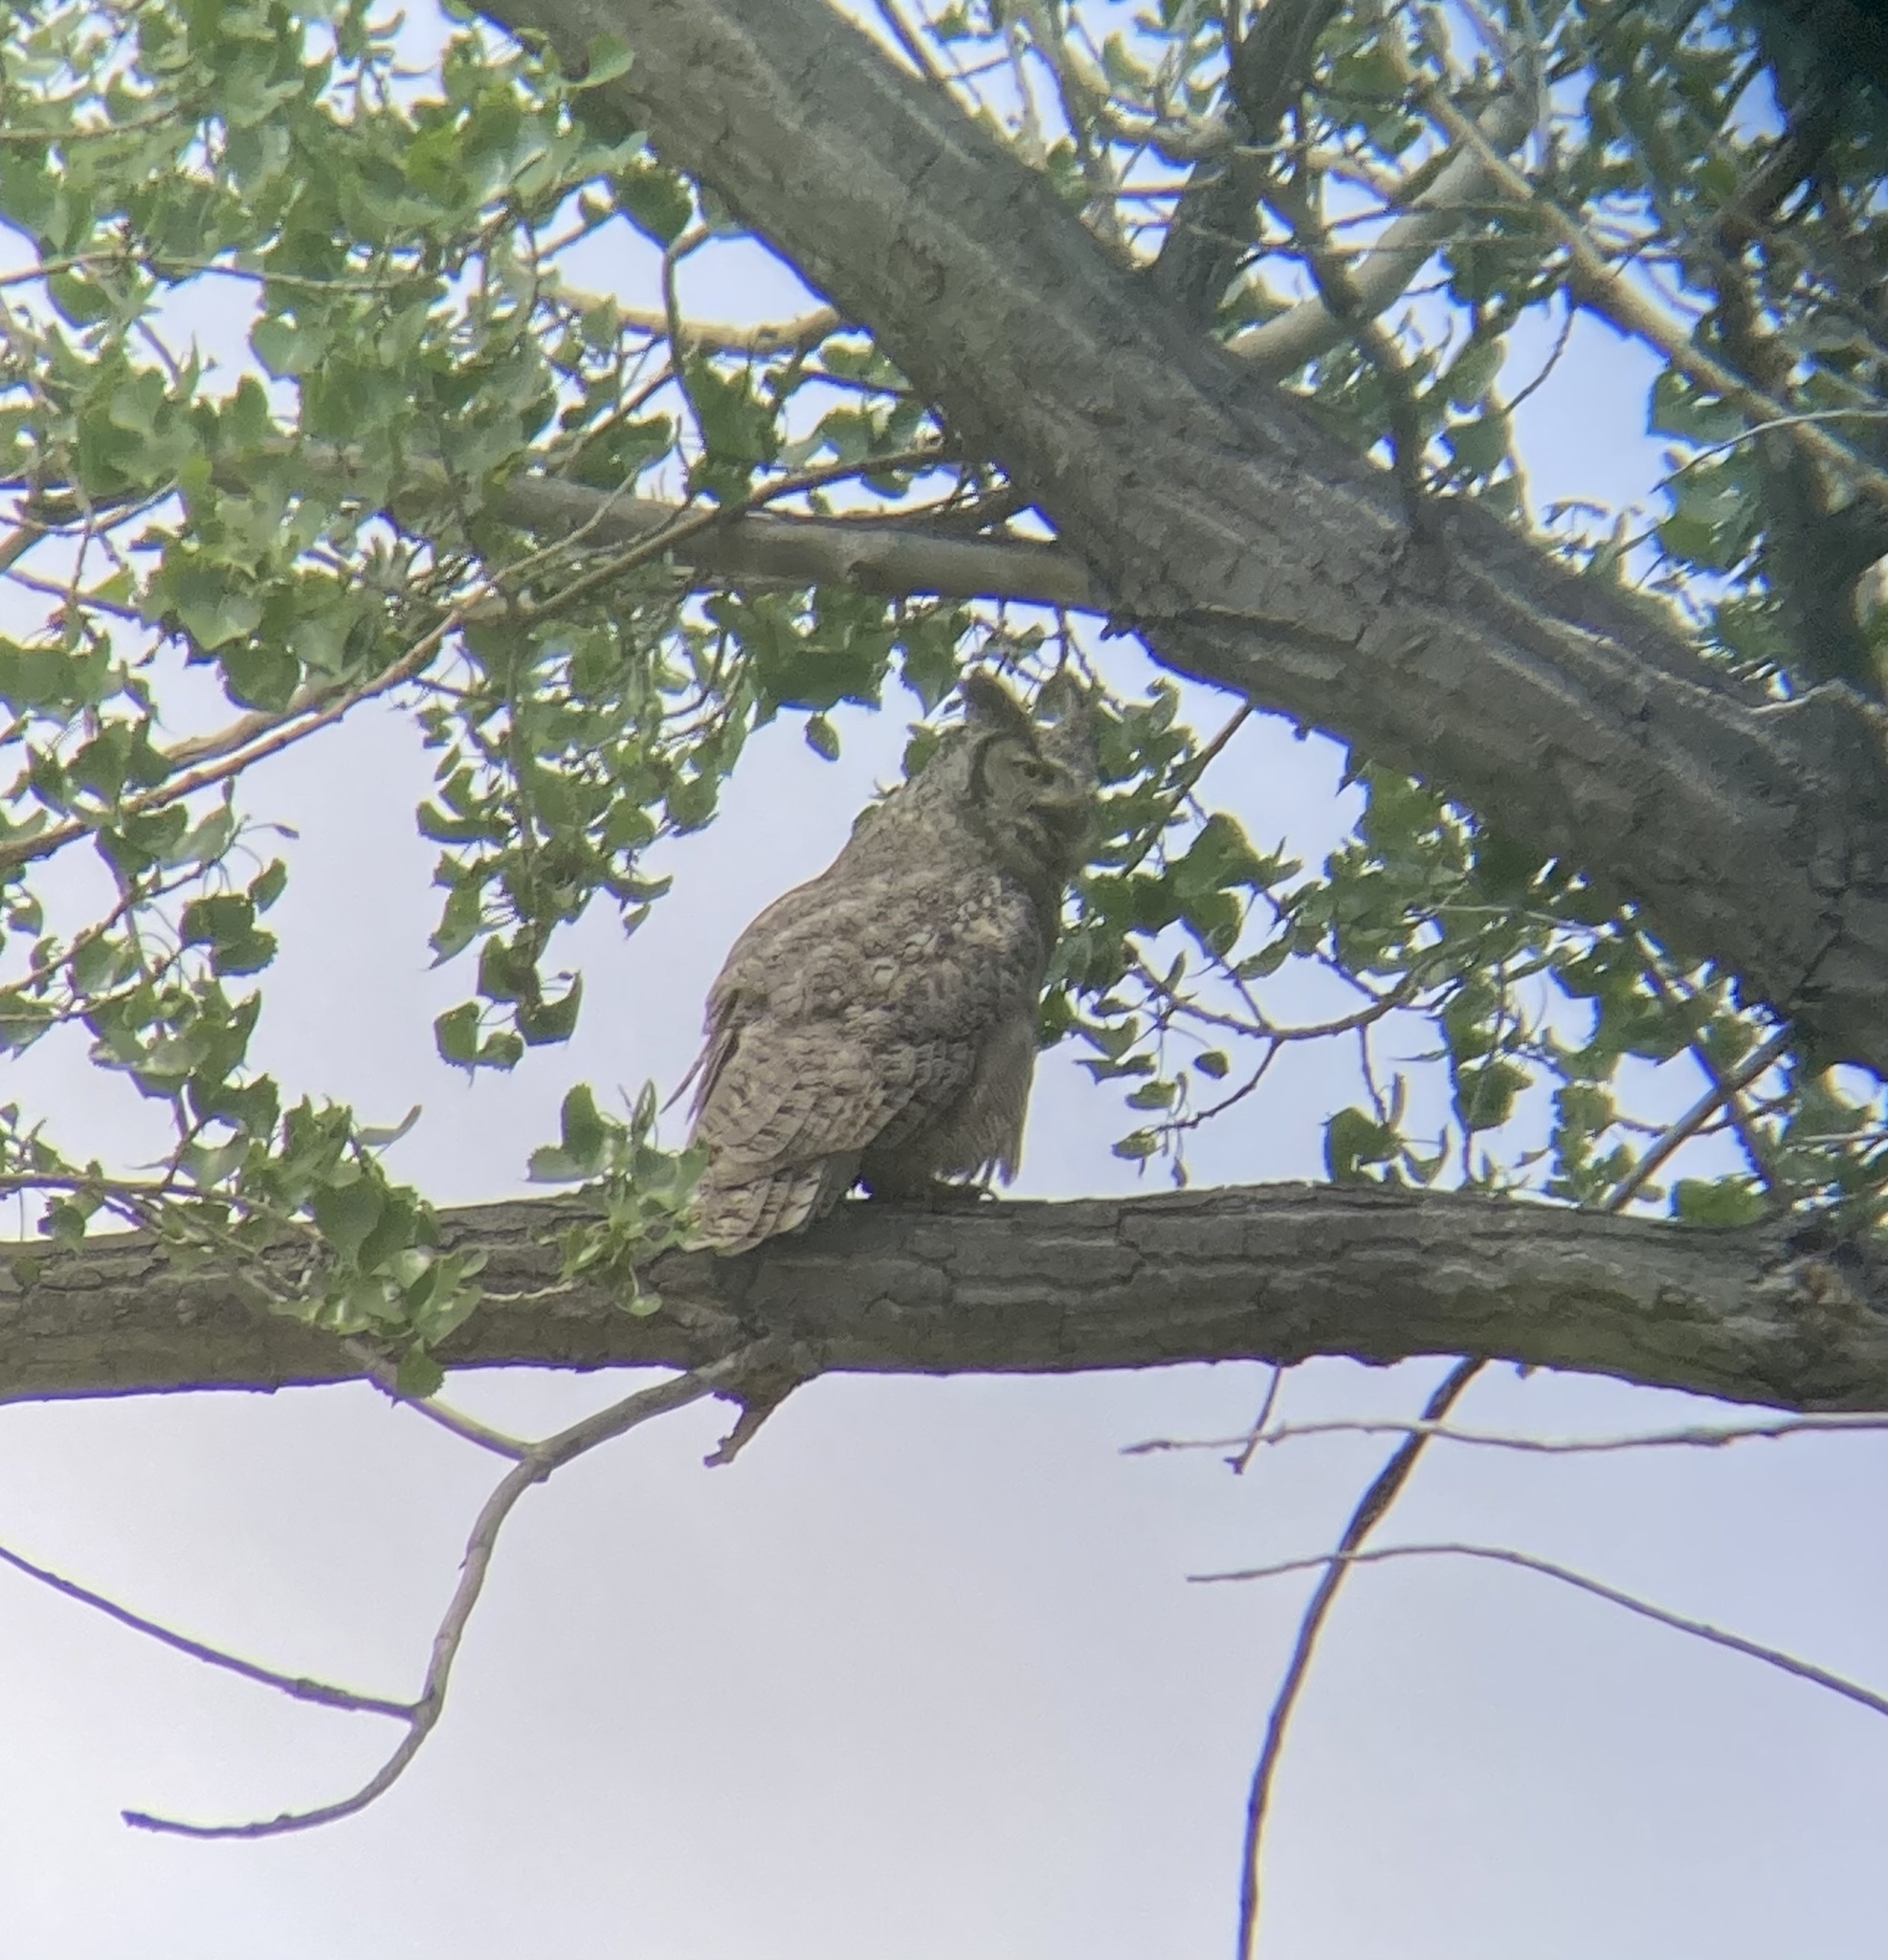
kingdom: Animalia
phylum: Chordata
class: Aves
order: Strigiformes
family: Strigidae
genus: Bubo
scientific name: Bubo virginianus
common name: Great horned owl
